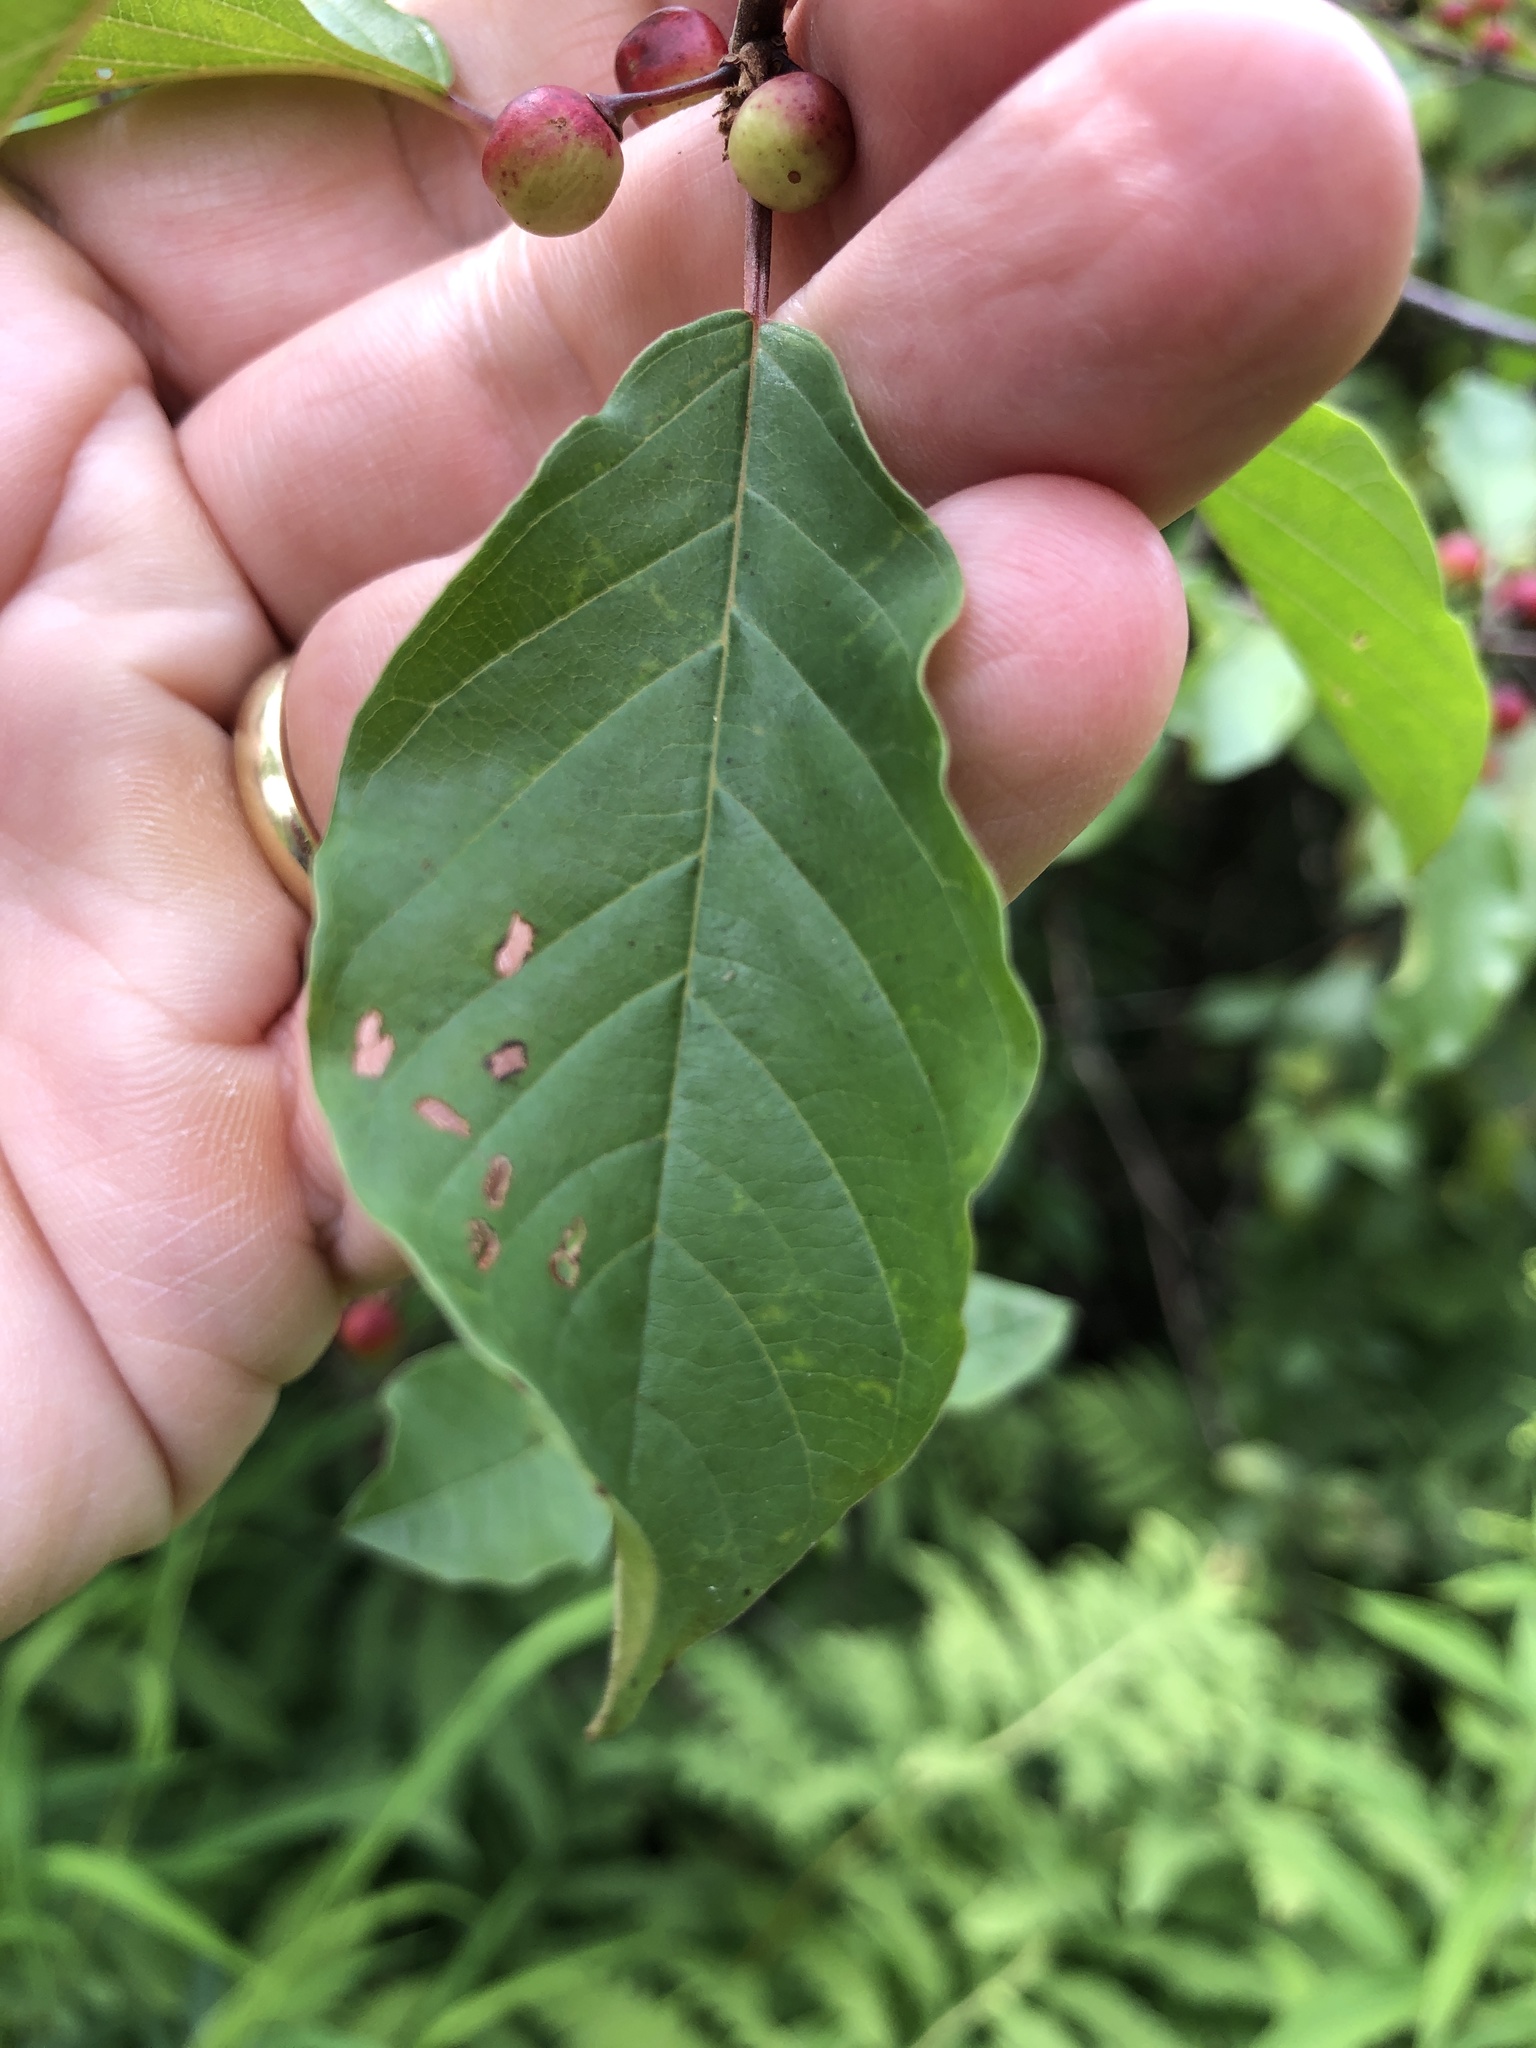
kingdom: Plantae
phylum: Tracheophyta
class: Magnoliopsida
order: Rosales
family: Rhamnaceae
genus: Frangula
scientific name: Frangula alnus
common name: Alder buckthorn
